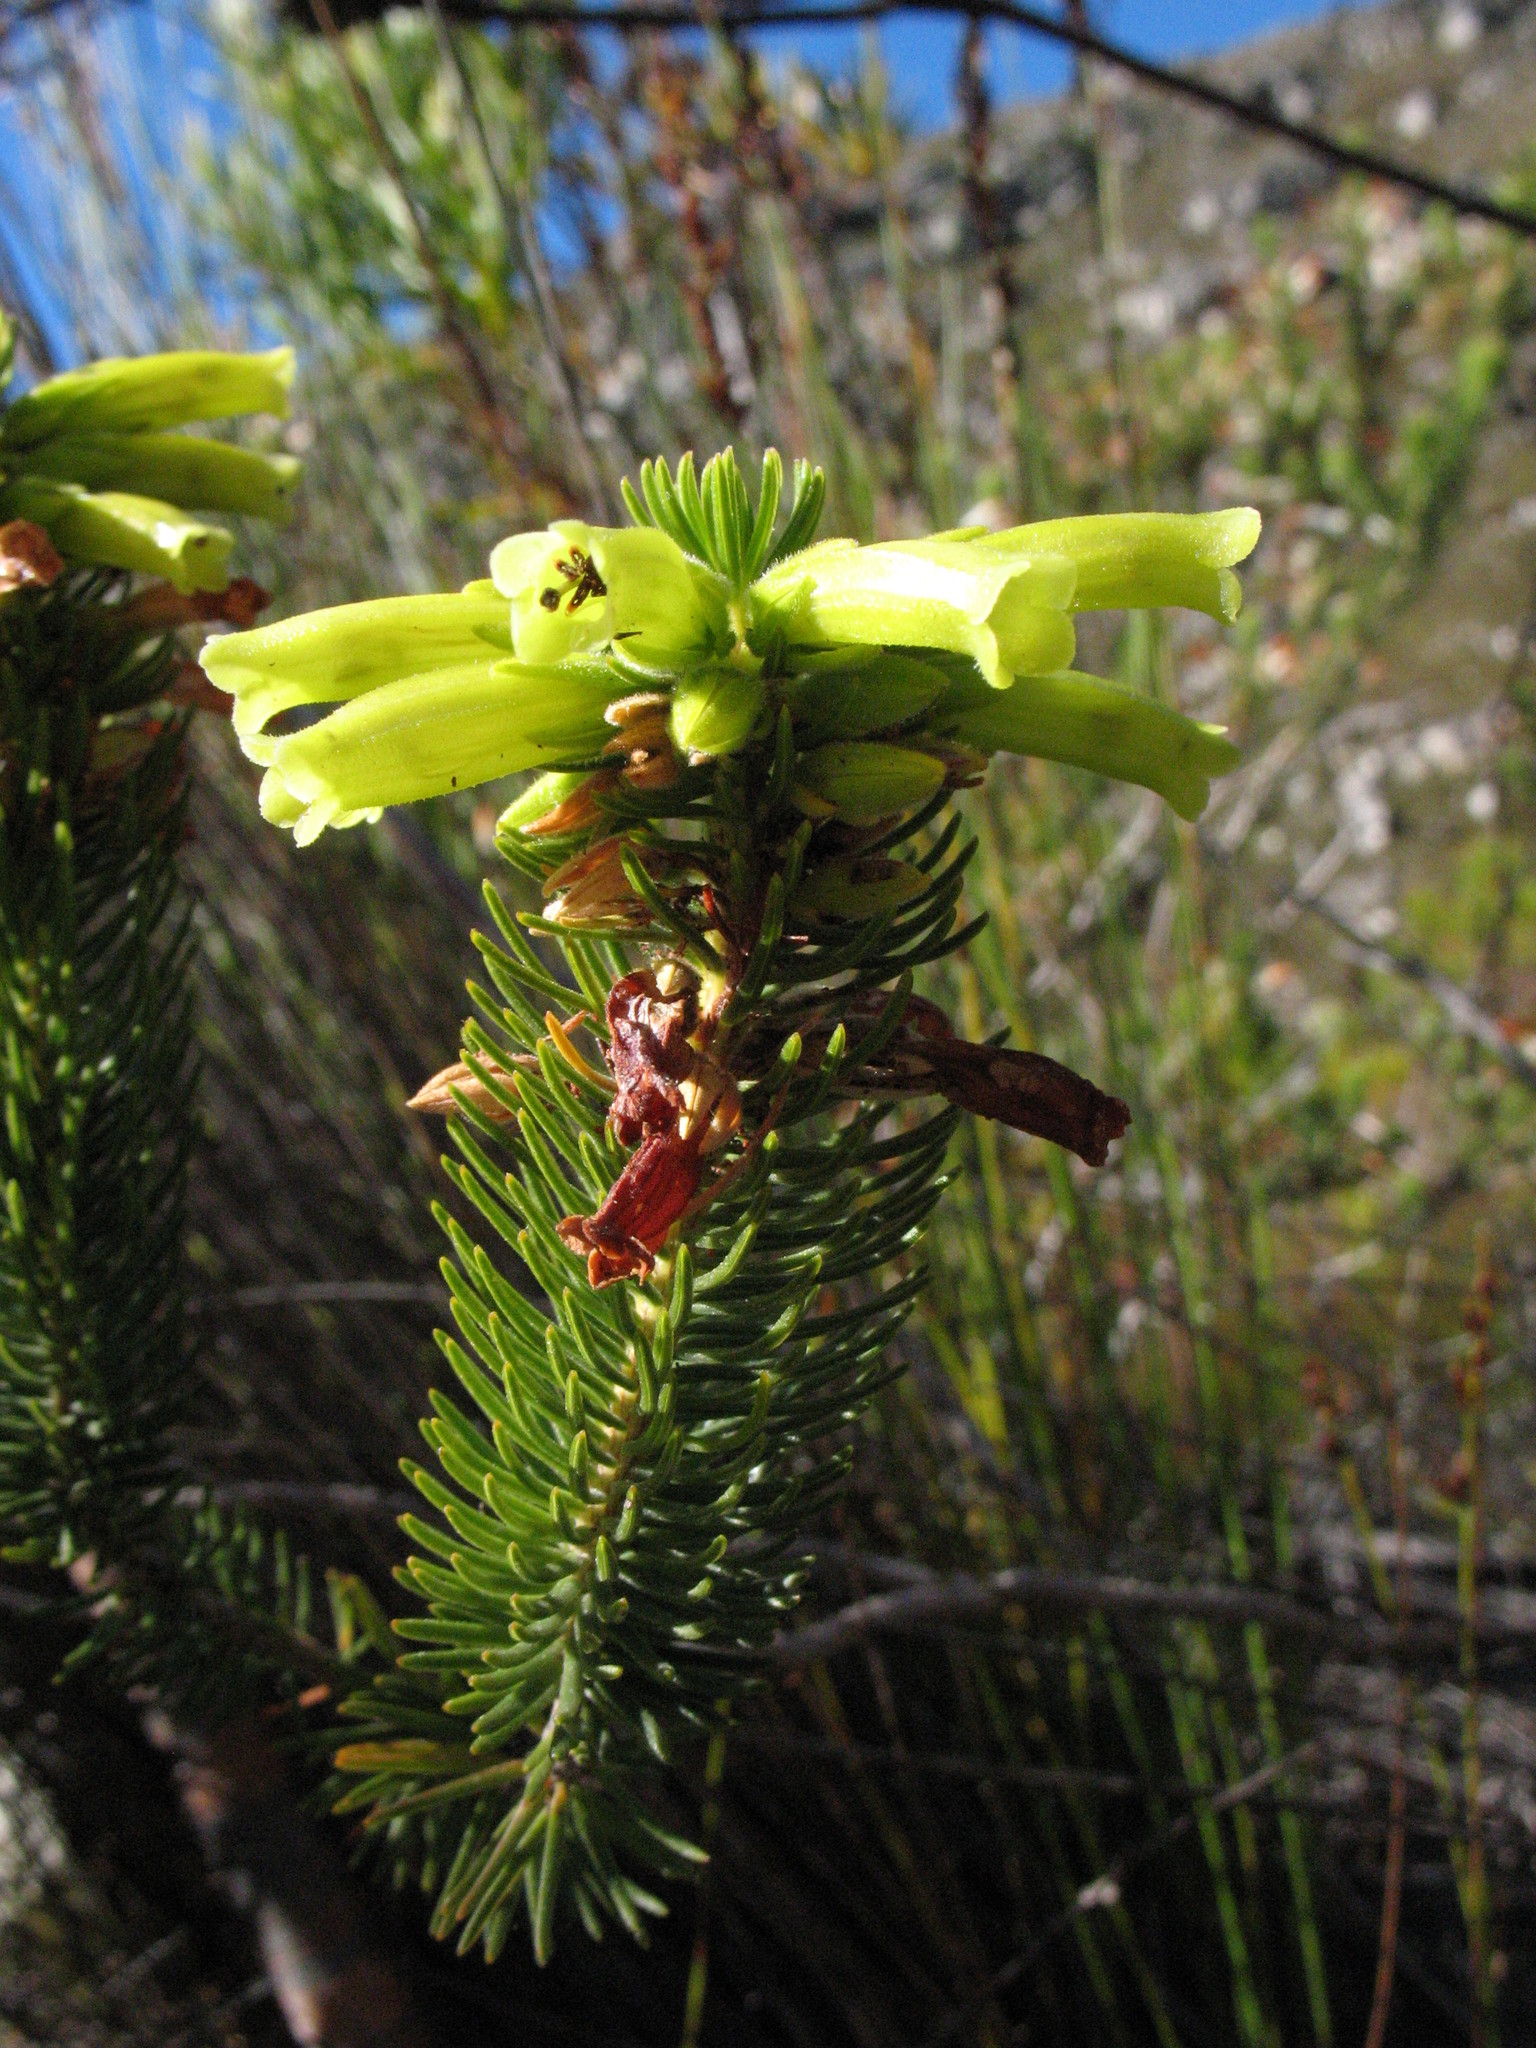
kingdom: Plantae
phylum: Tracheophyta
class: Magnoliopsida
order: Ericales
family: Ericaceae
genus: Erica
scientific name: Erica viscaria
